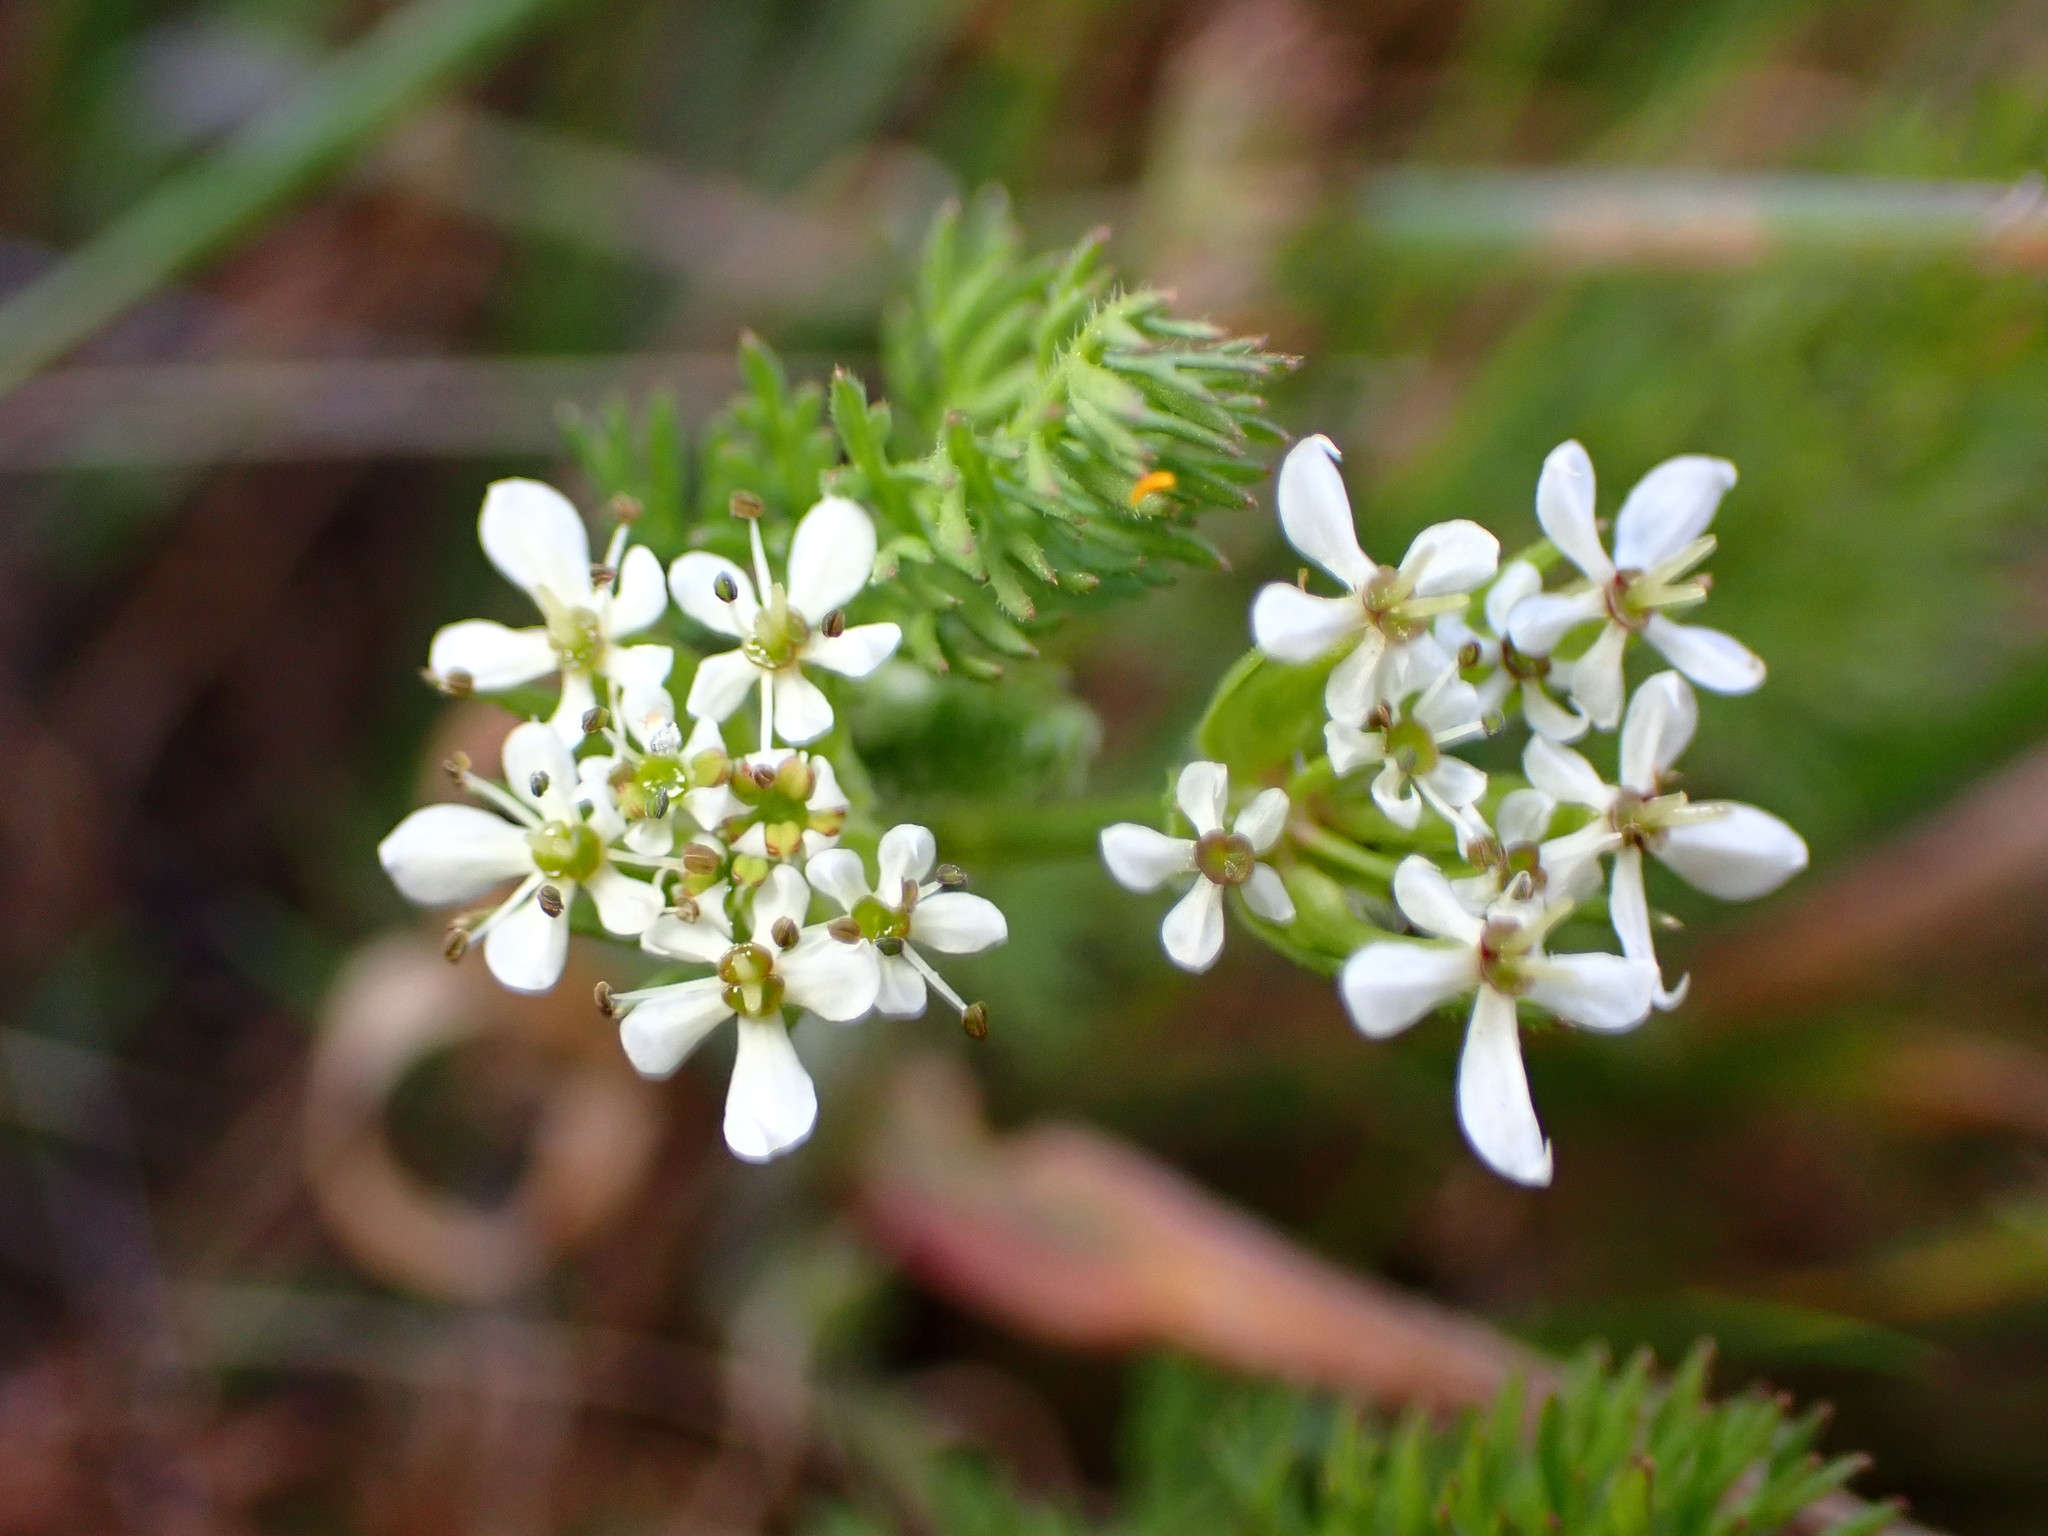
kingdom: Plantae
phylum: Tracheophyta
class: Magnoliopsida
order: Apiales
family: Apiaceae
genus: Scandix
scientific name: Scandix pecten-veneris
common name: Shepherd's-needle
